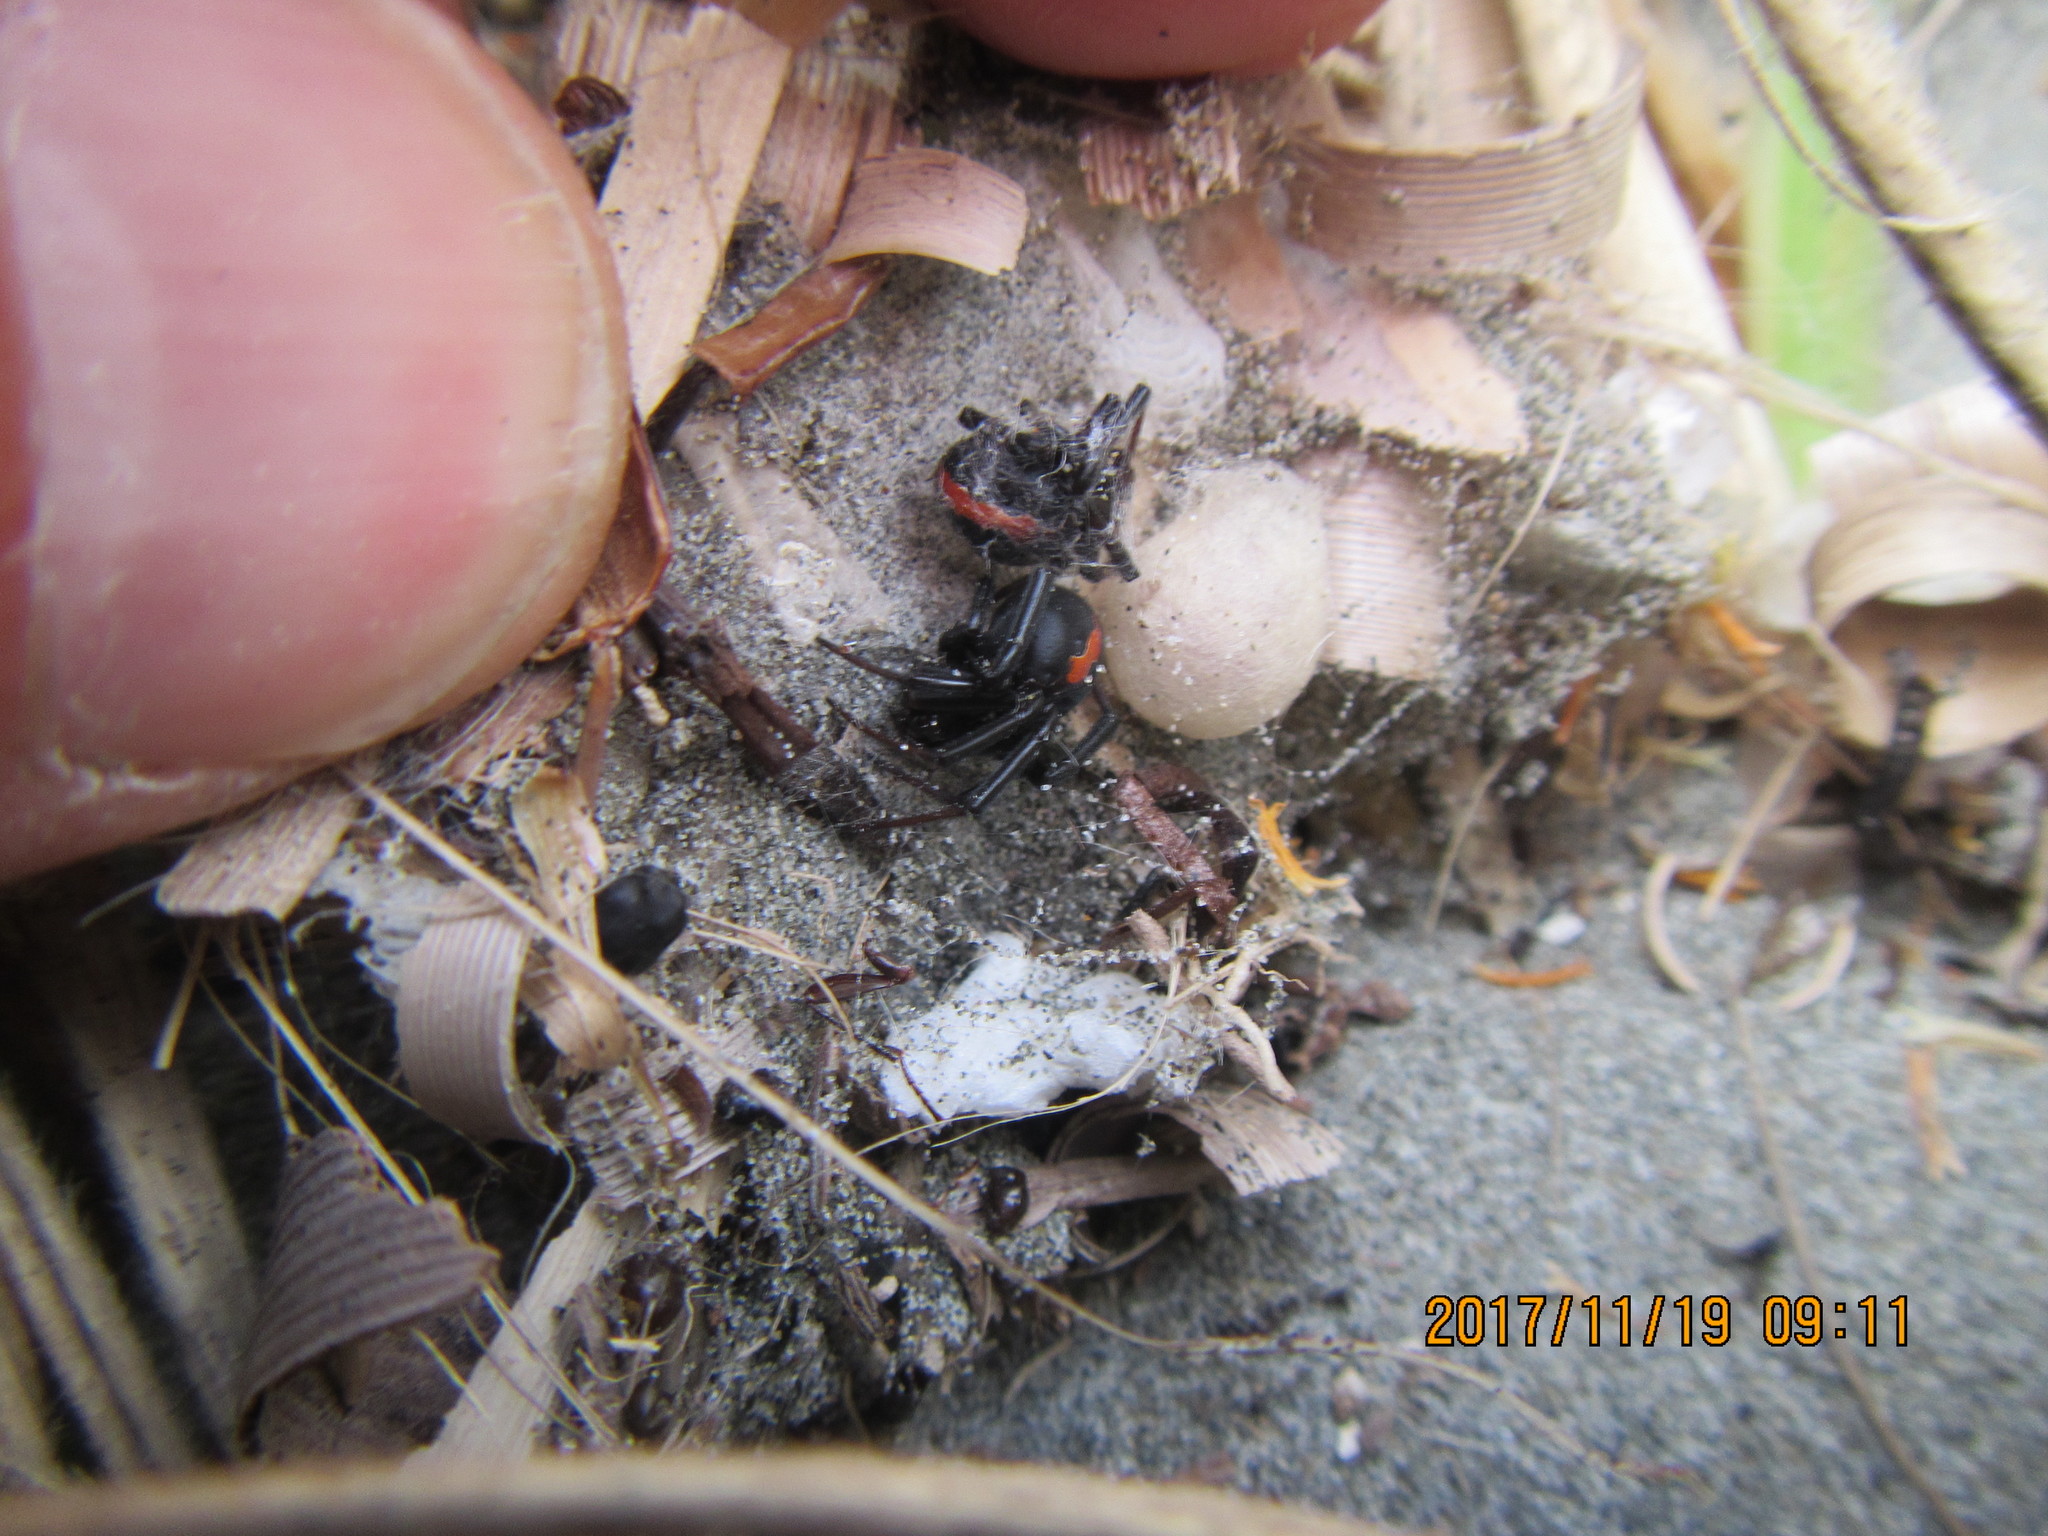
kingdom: Animalia
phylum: Arthropoda
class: Arachnida
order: Araneae
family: Theridiidae
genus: Latrodectus
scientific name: Latrodectus katipo
